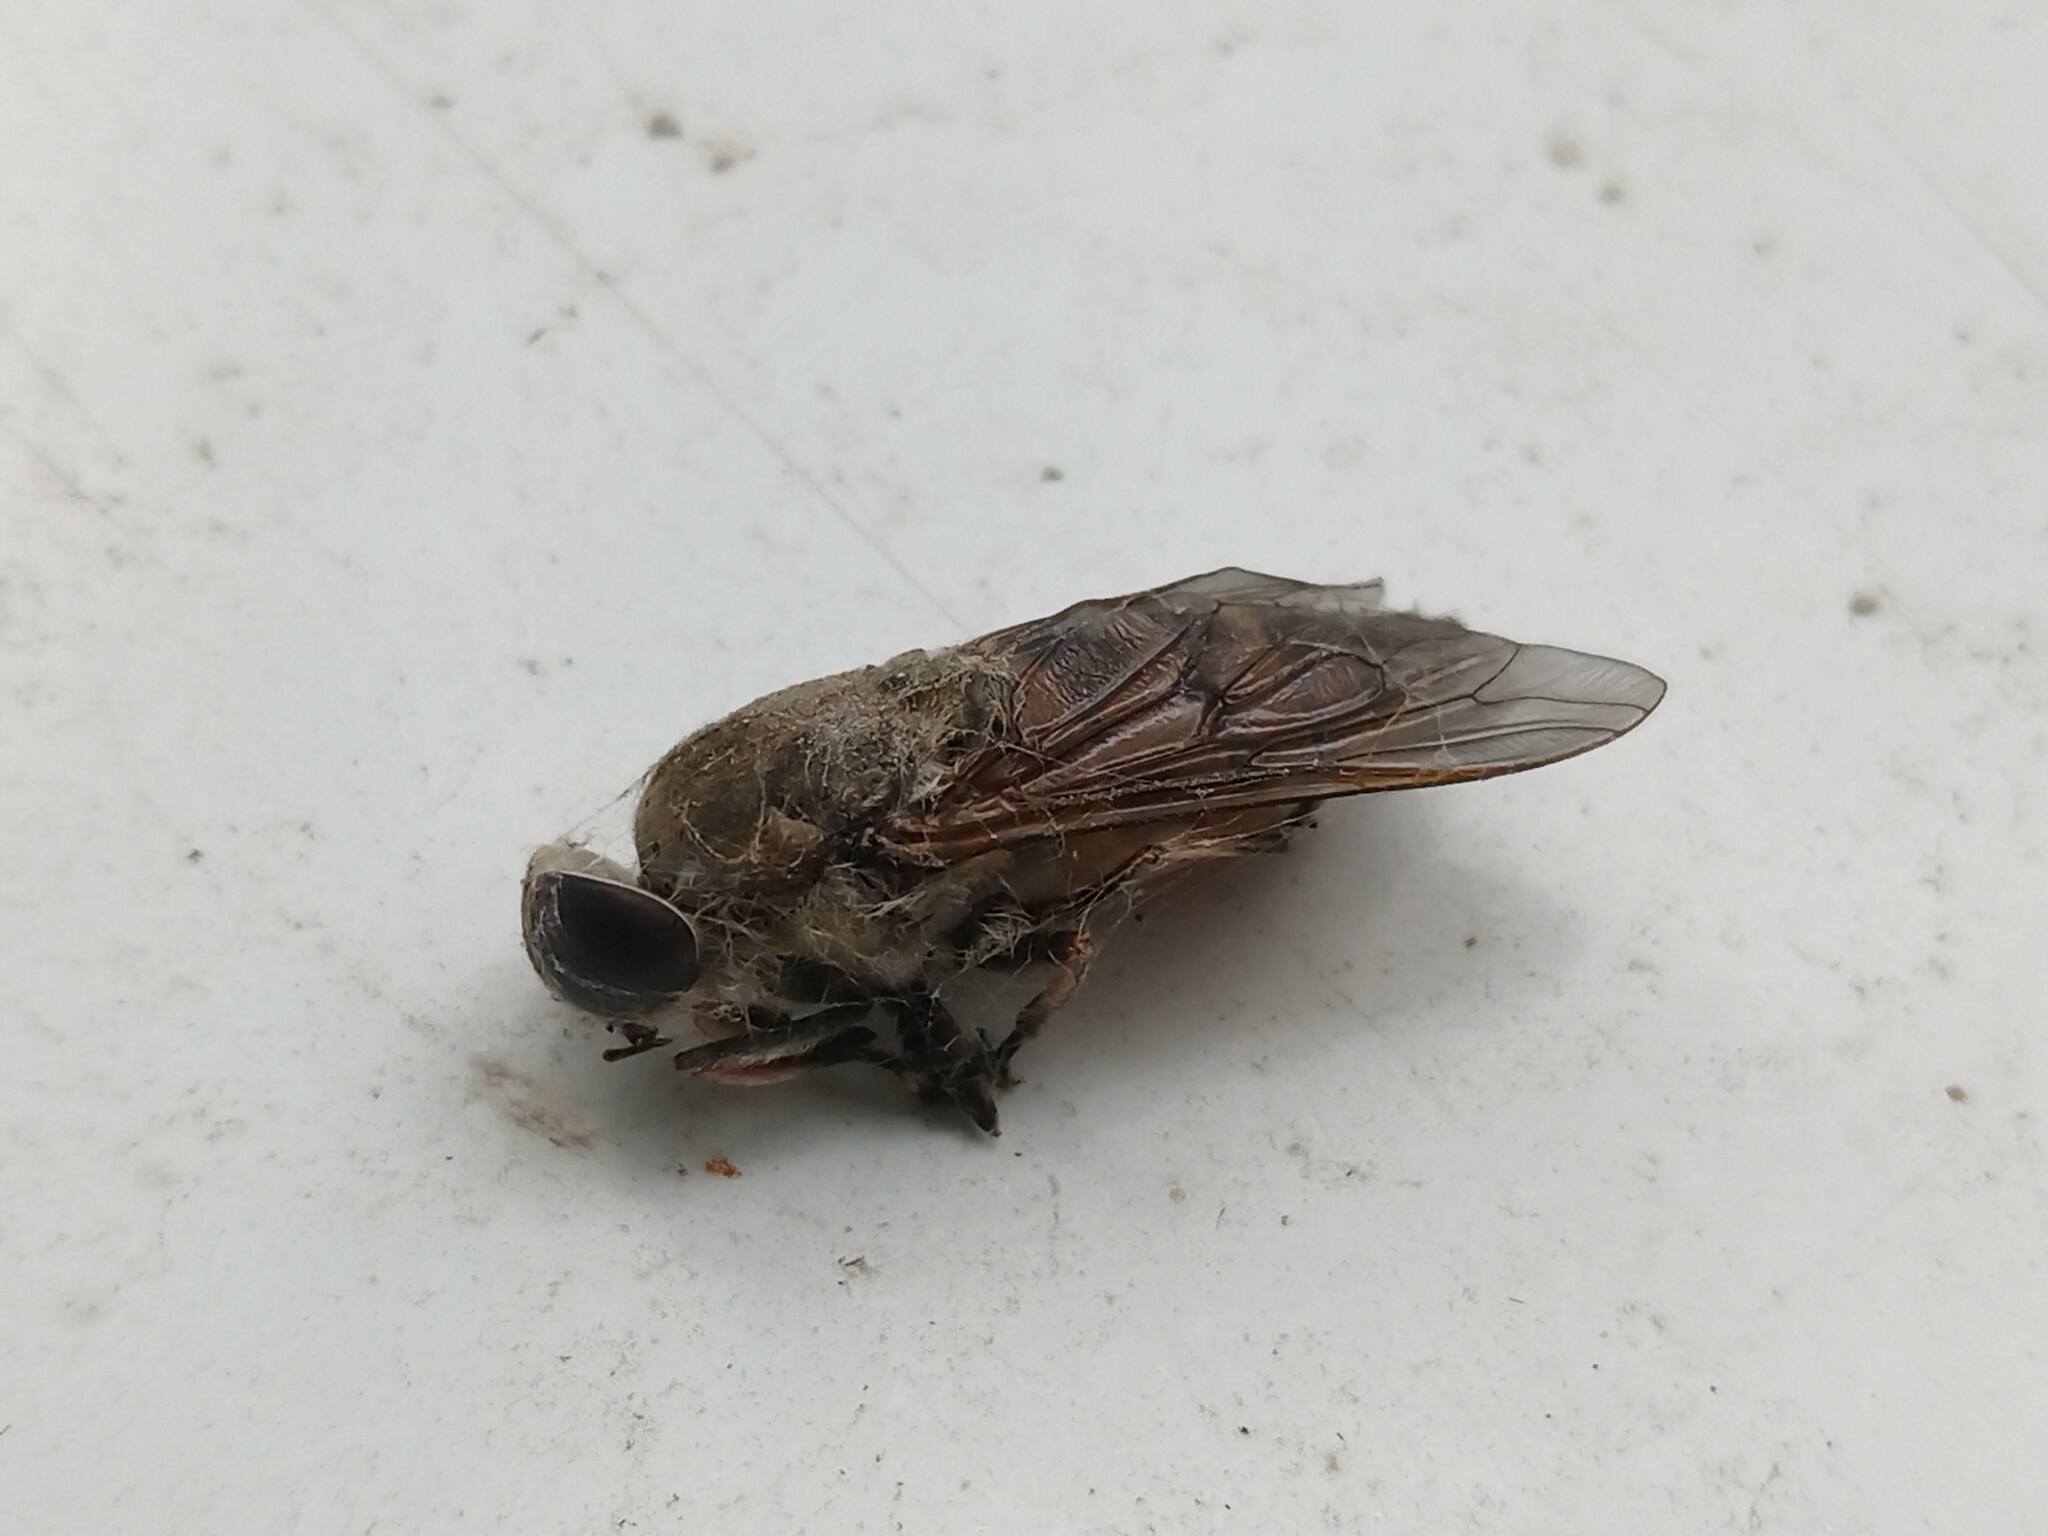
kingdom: Animalia
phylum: Arthropoda
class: Insecta
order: Diptera
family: Tabanidae
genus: Tabanus
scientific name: Tabanus eggeri
